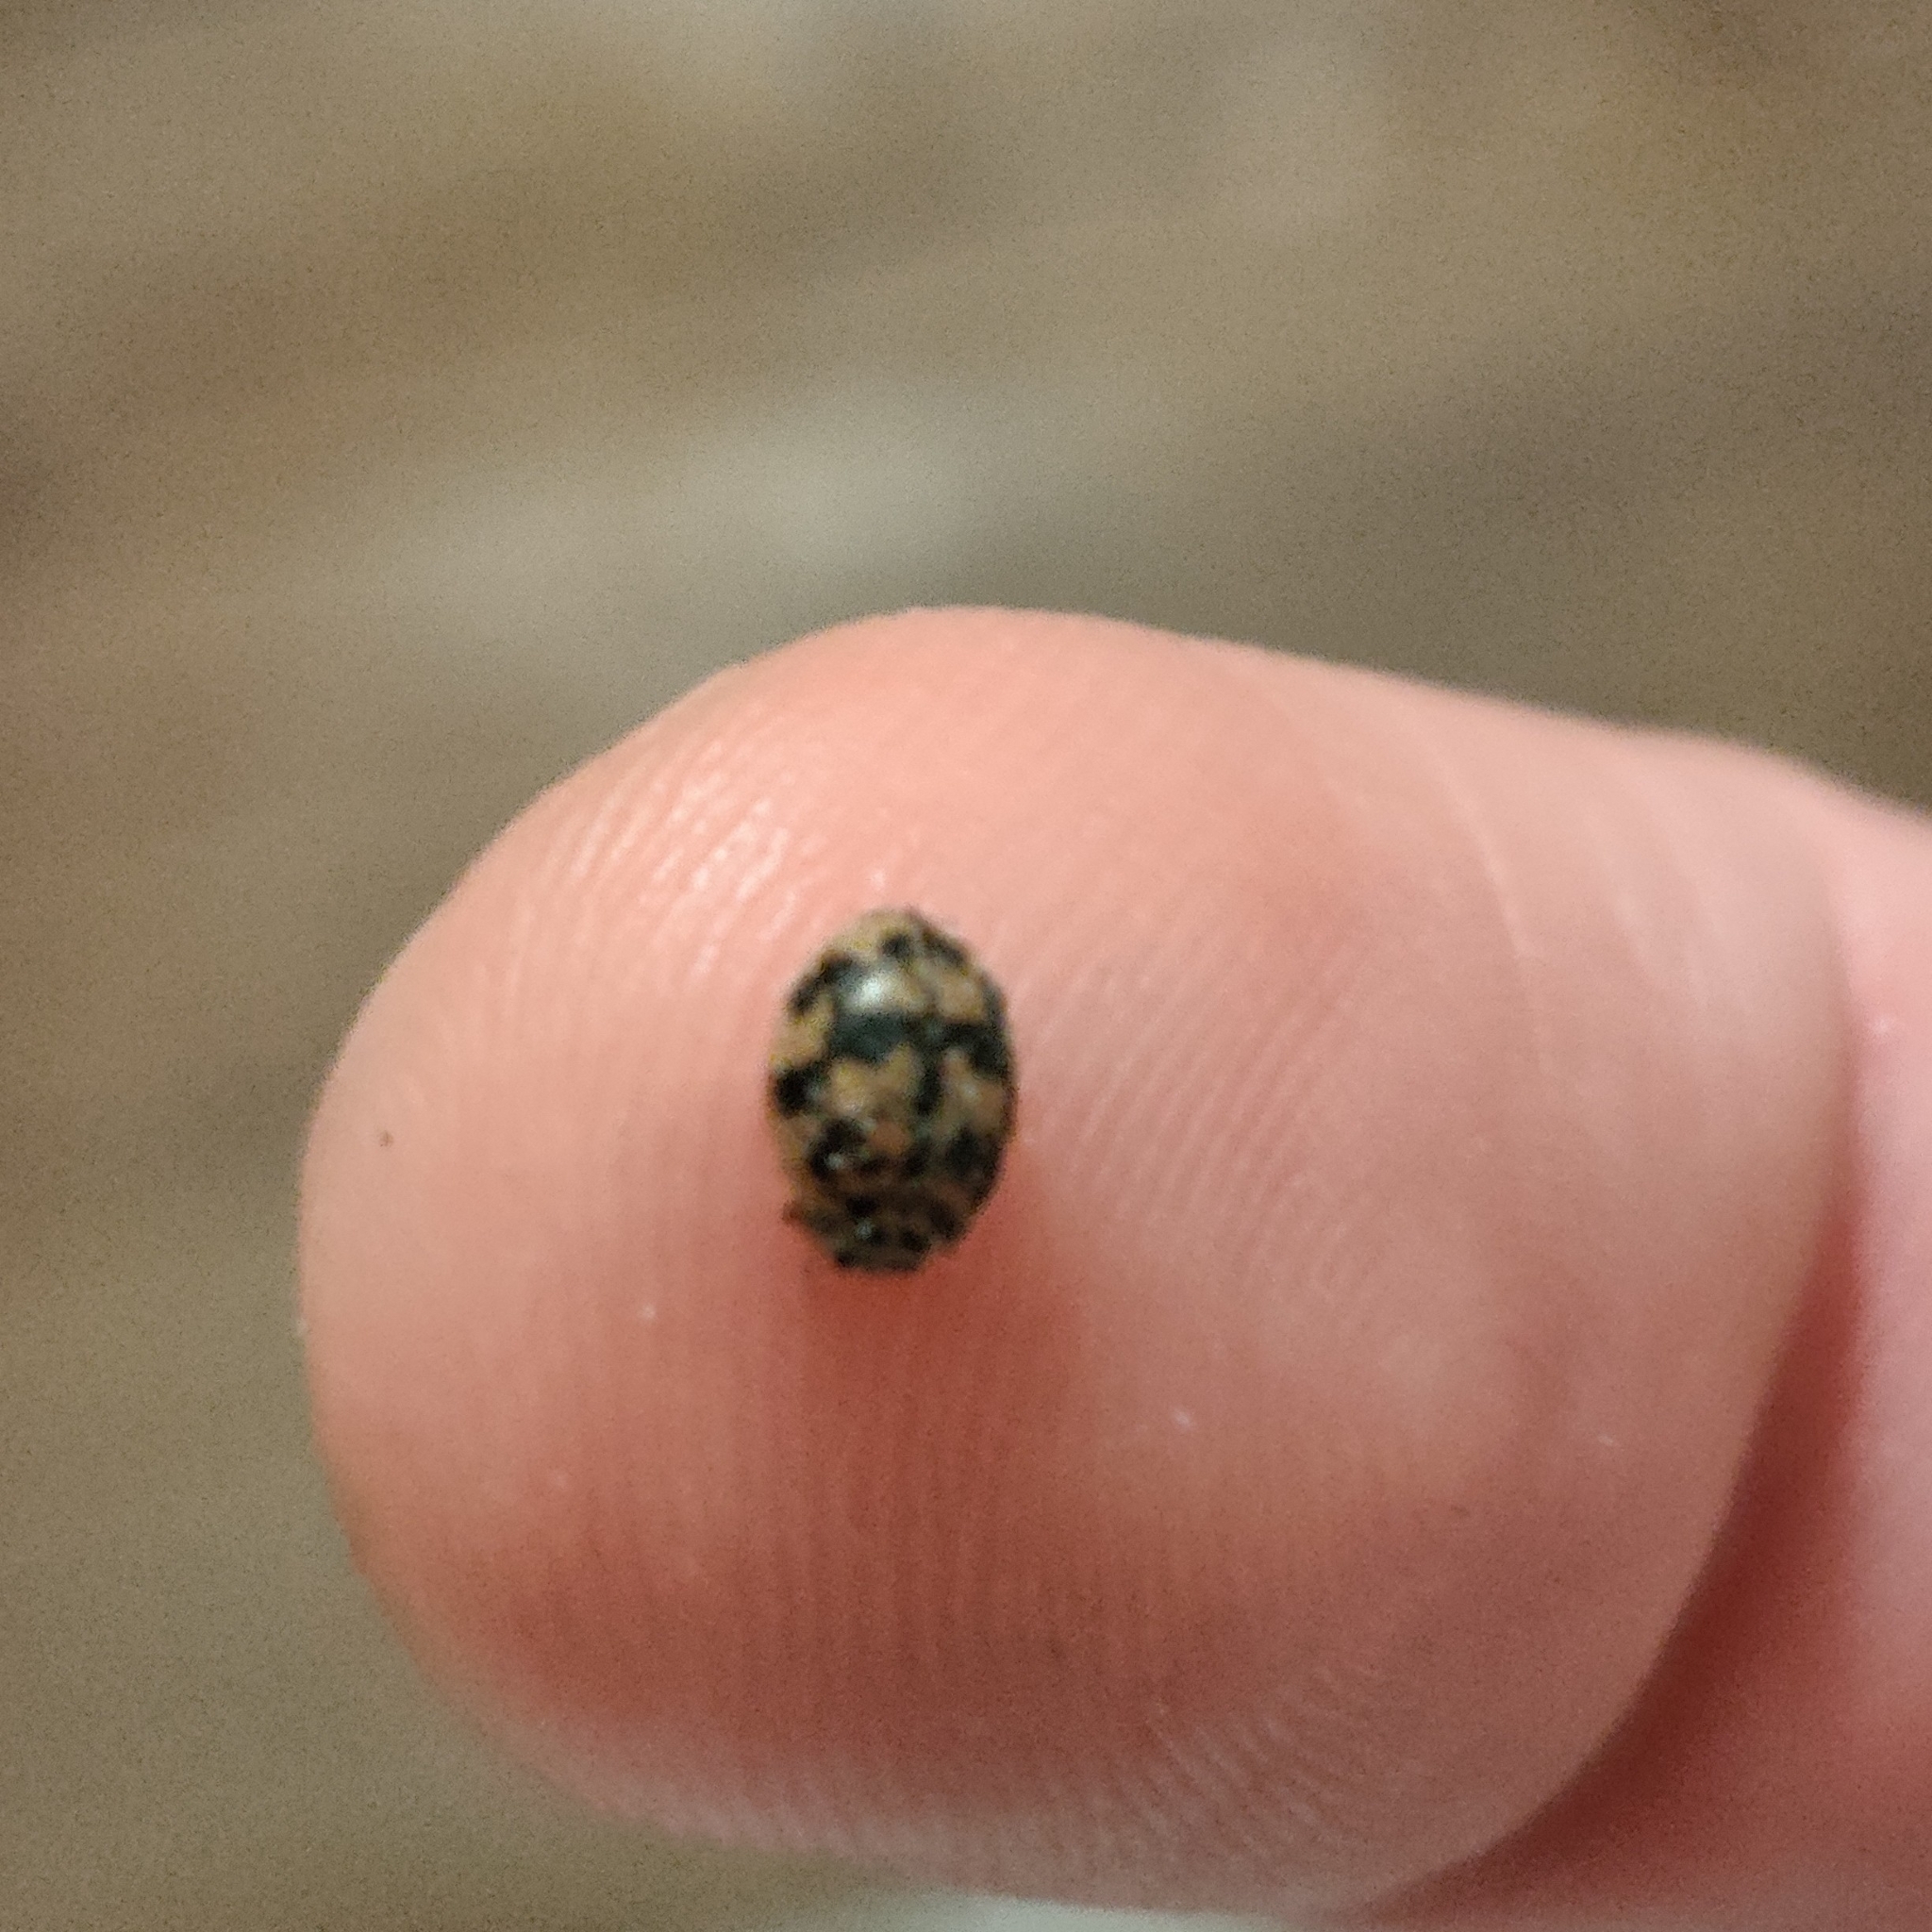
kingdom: Animalia
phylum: Arthropoda
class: Insecta
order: Coleoptera
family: Coccinellidae
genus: Oenopia
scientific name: Oenopia conglobata
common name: Ladybird beetle
